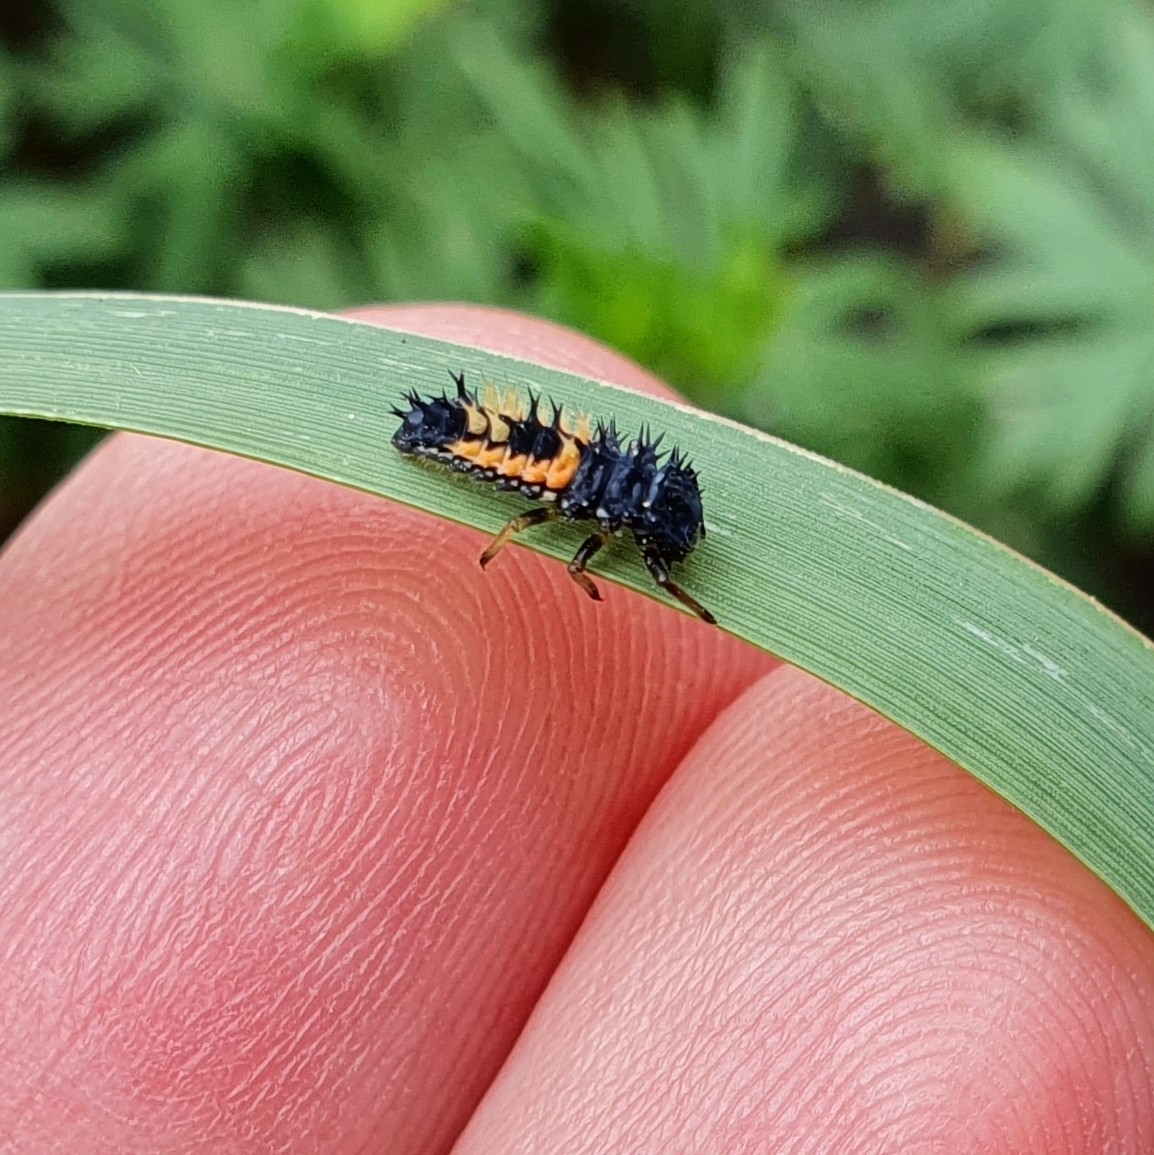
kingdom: Animalia
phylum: Arthropoda
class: Insecta
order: Coleoptera
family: Coccinellidae
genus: Harmonia
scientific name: Harmonia axyridis
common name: Harlequin ladybird
